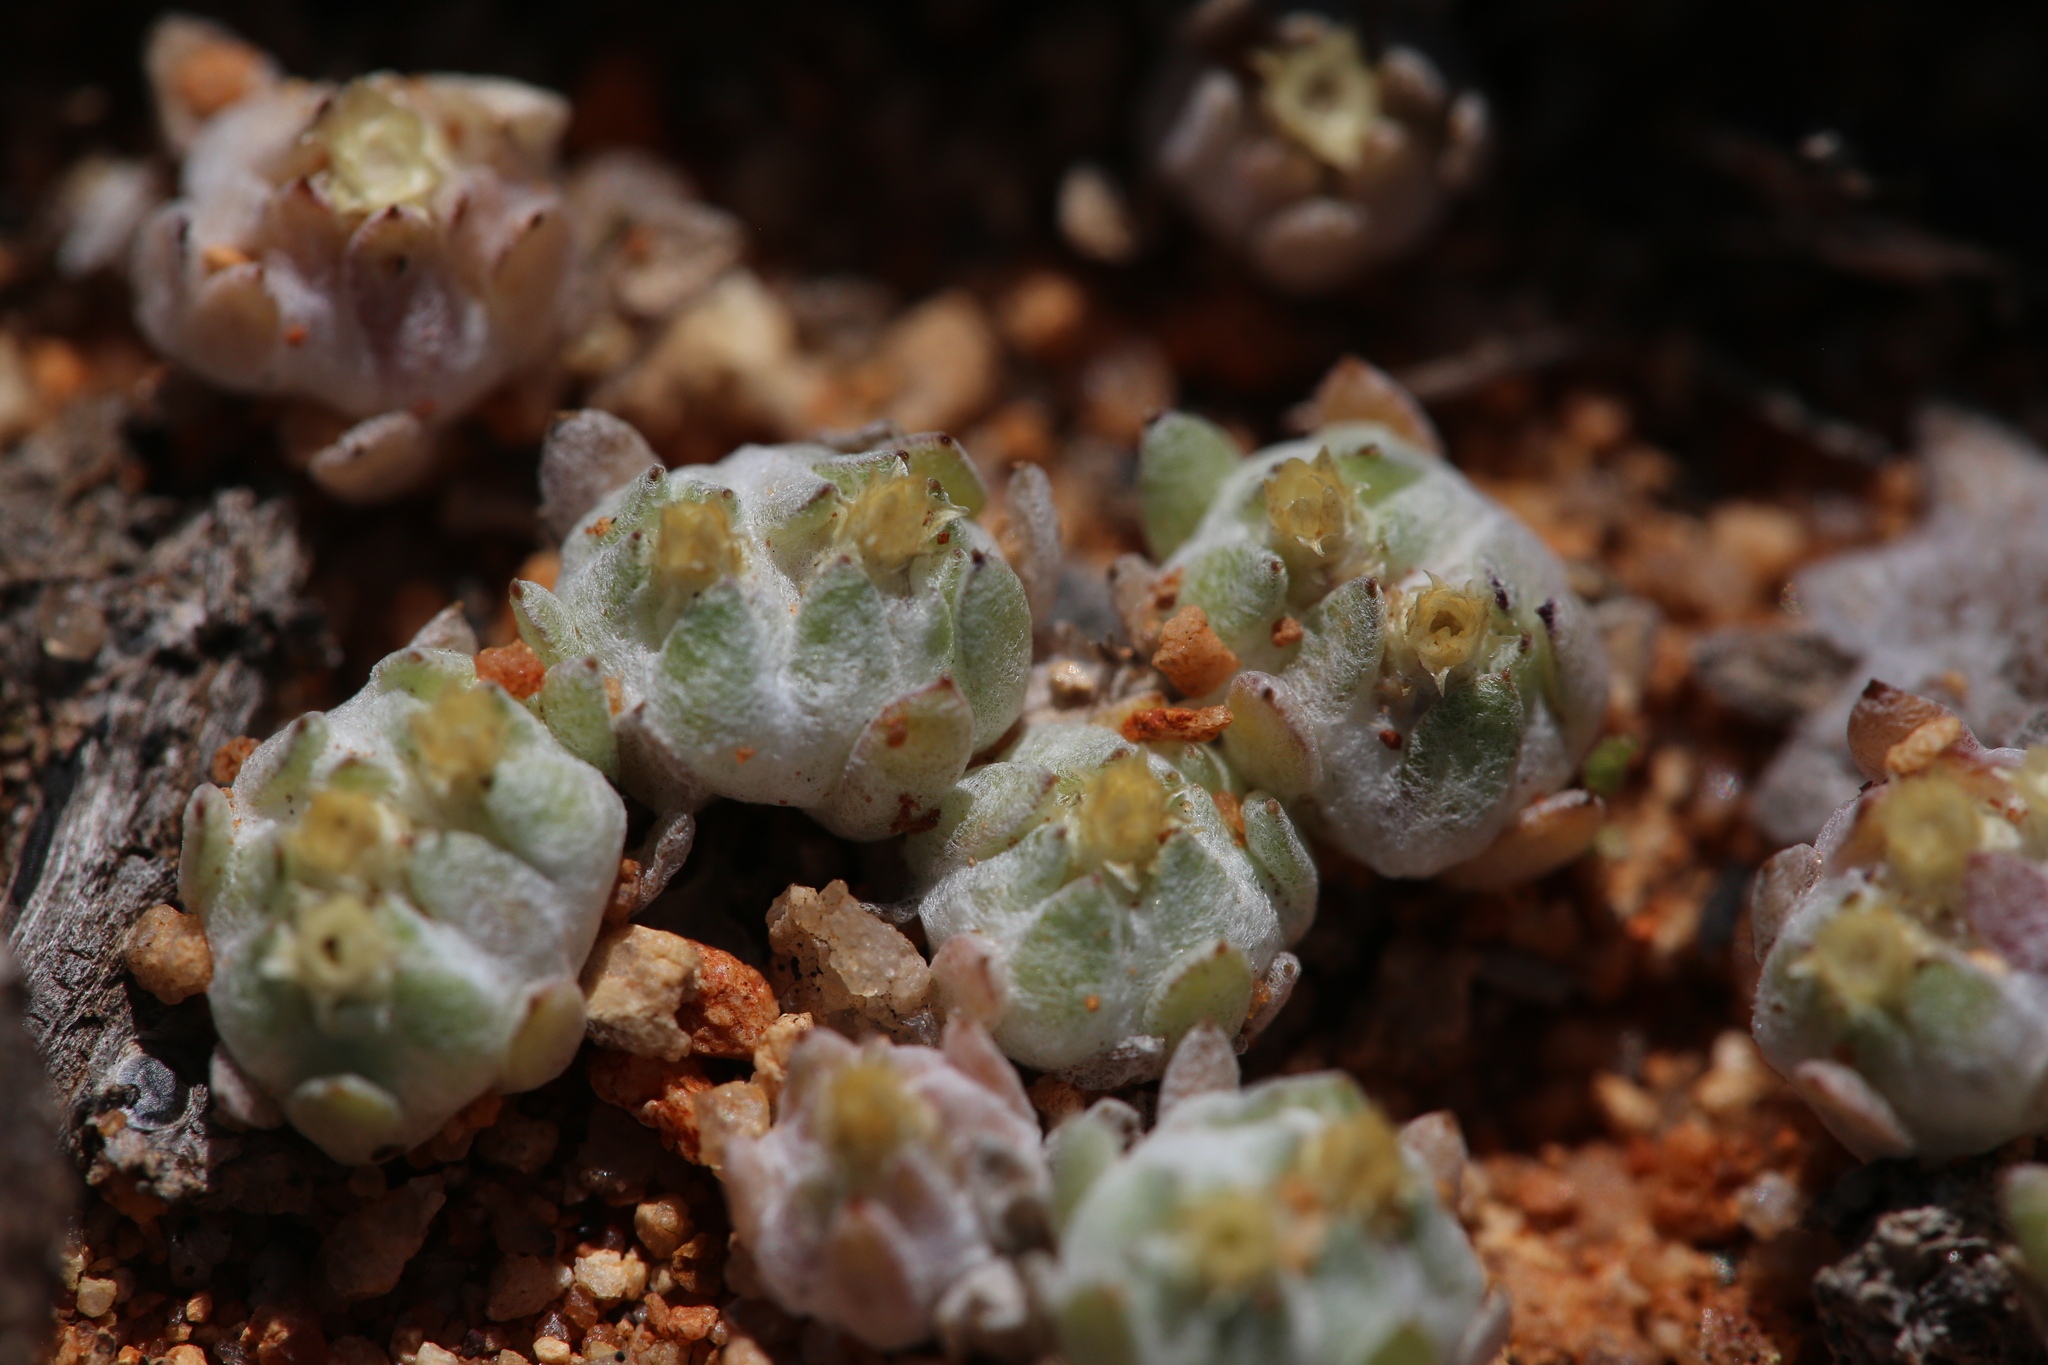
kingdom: Plantae
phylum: Tracheophyta
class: Magnoliopsida
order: Asterales
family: Asteraceae
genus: Actinobole
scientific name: Actinobole uliginosum
